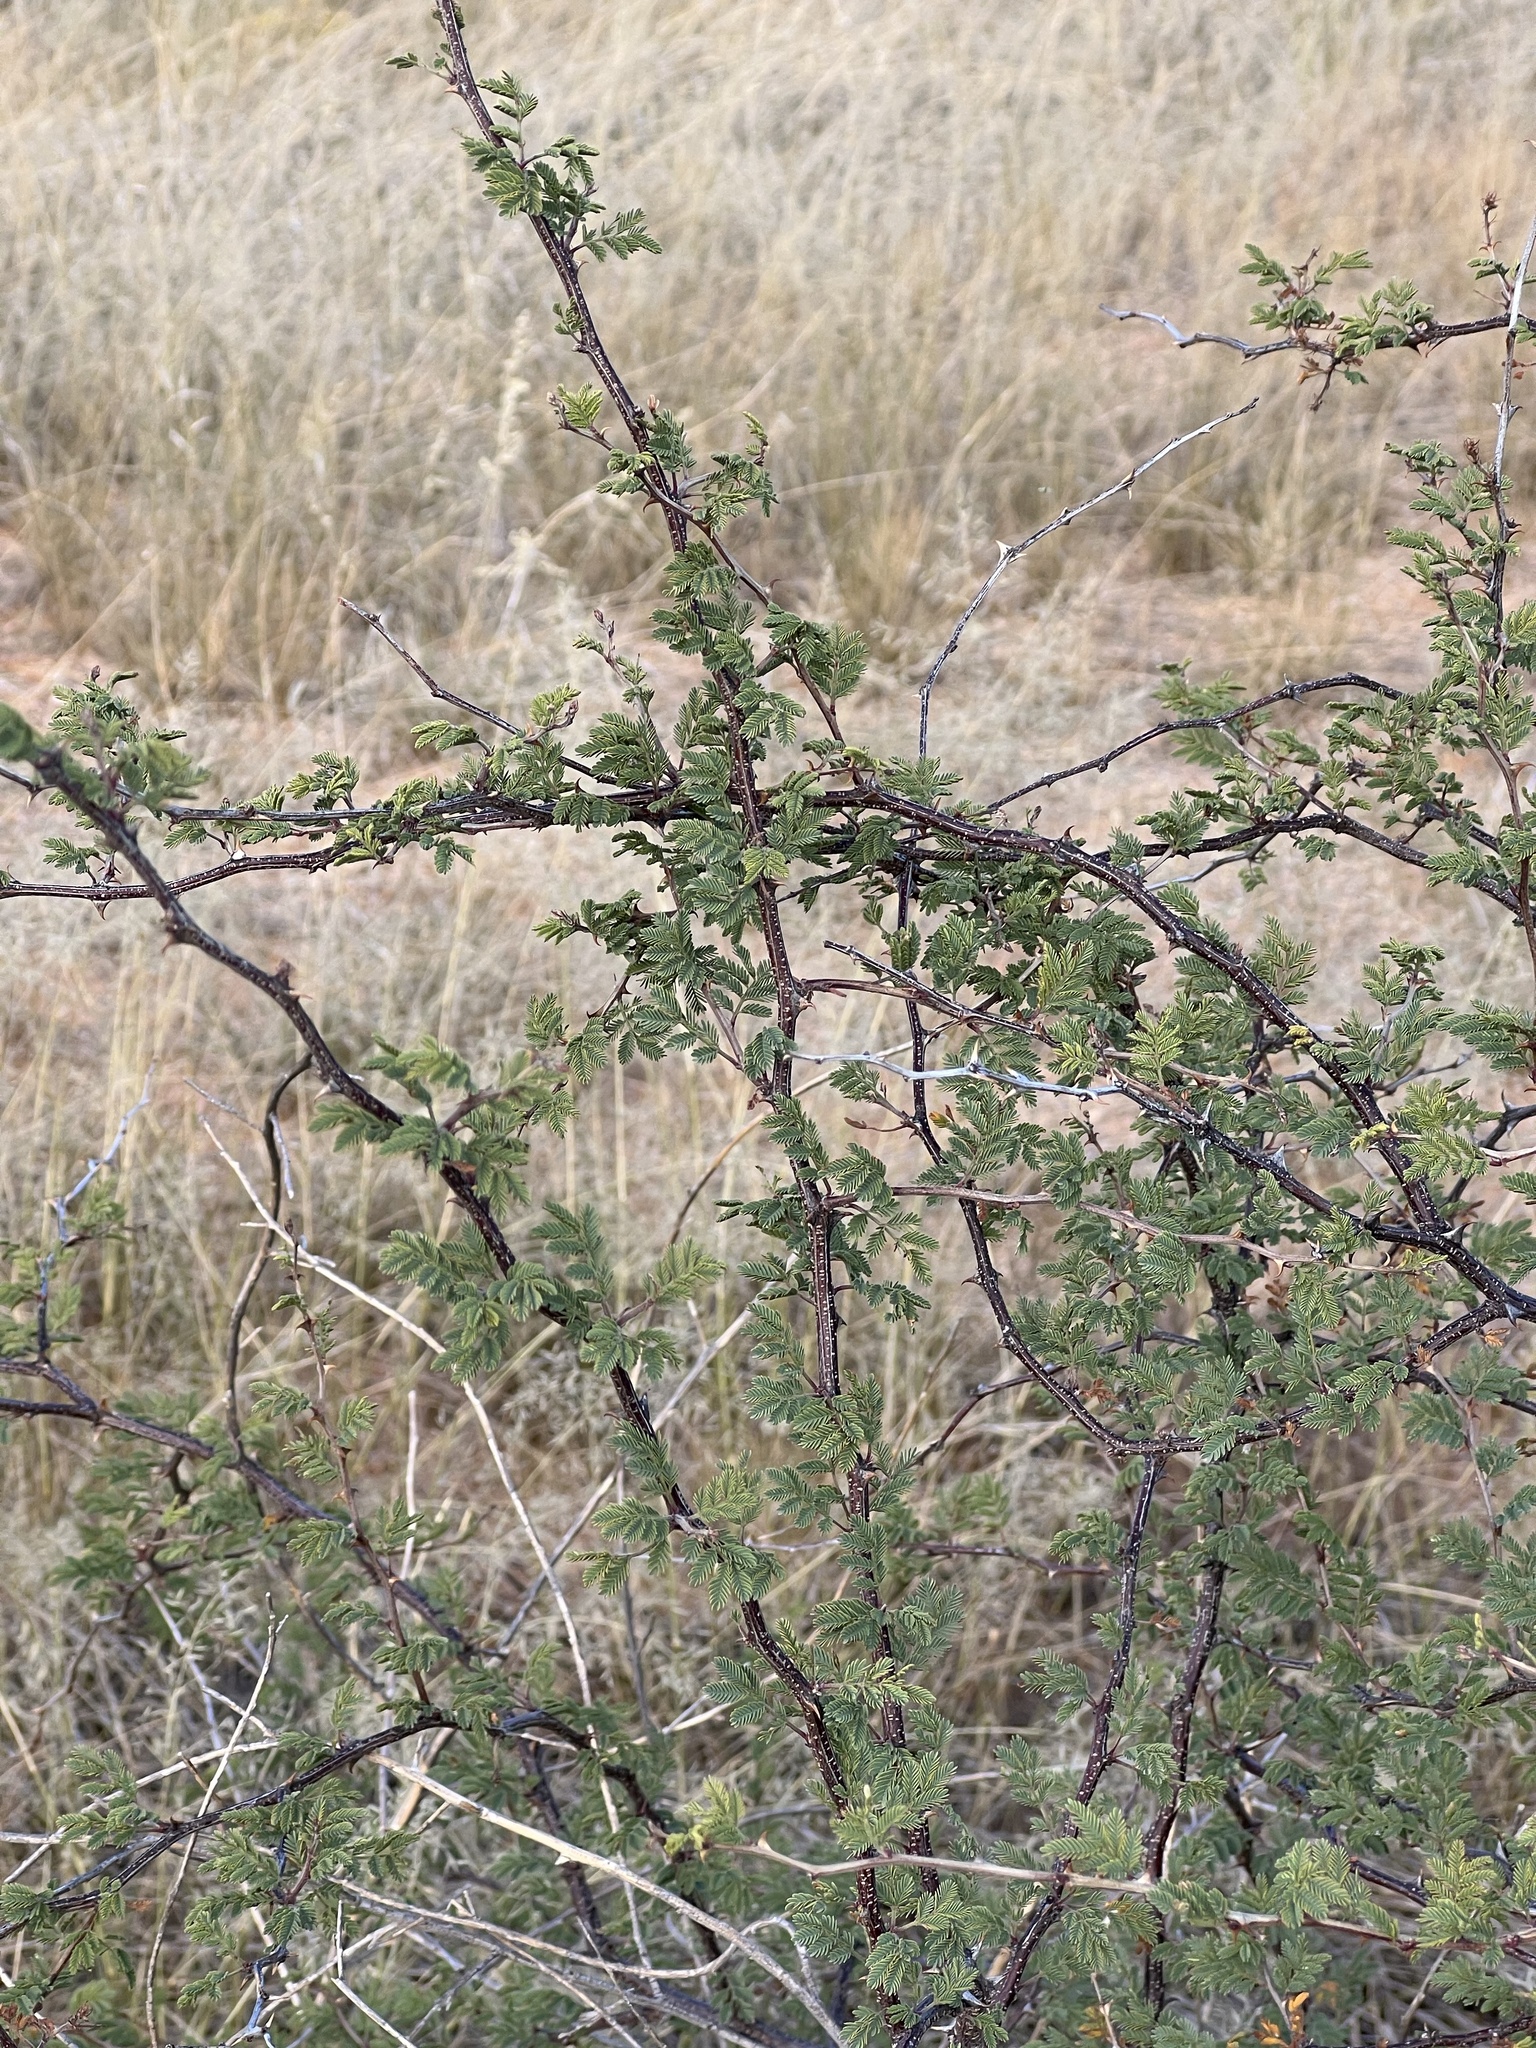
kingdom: Plantae
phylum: Tracheophyta
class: Magnoliopsida
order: Fabales
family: Fabaceae
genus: Mimosa
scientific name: Mimosa aculeaticarpa
